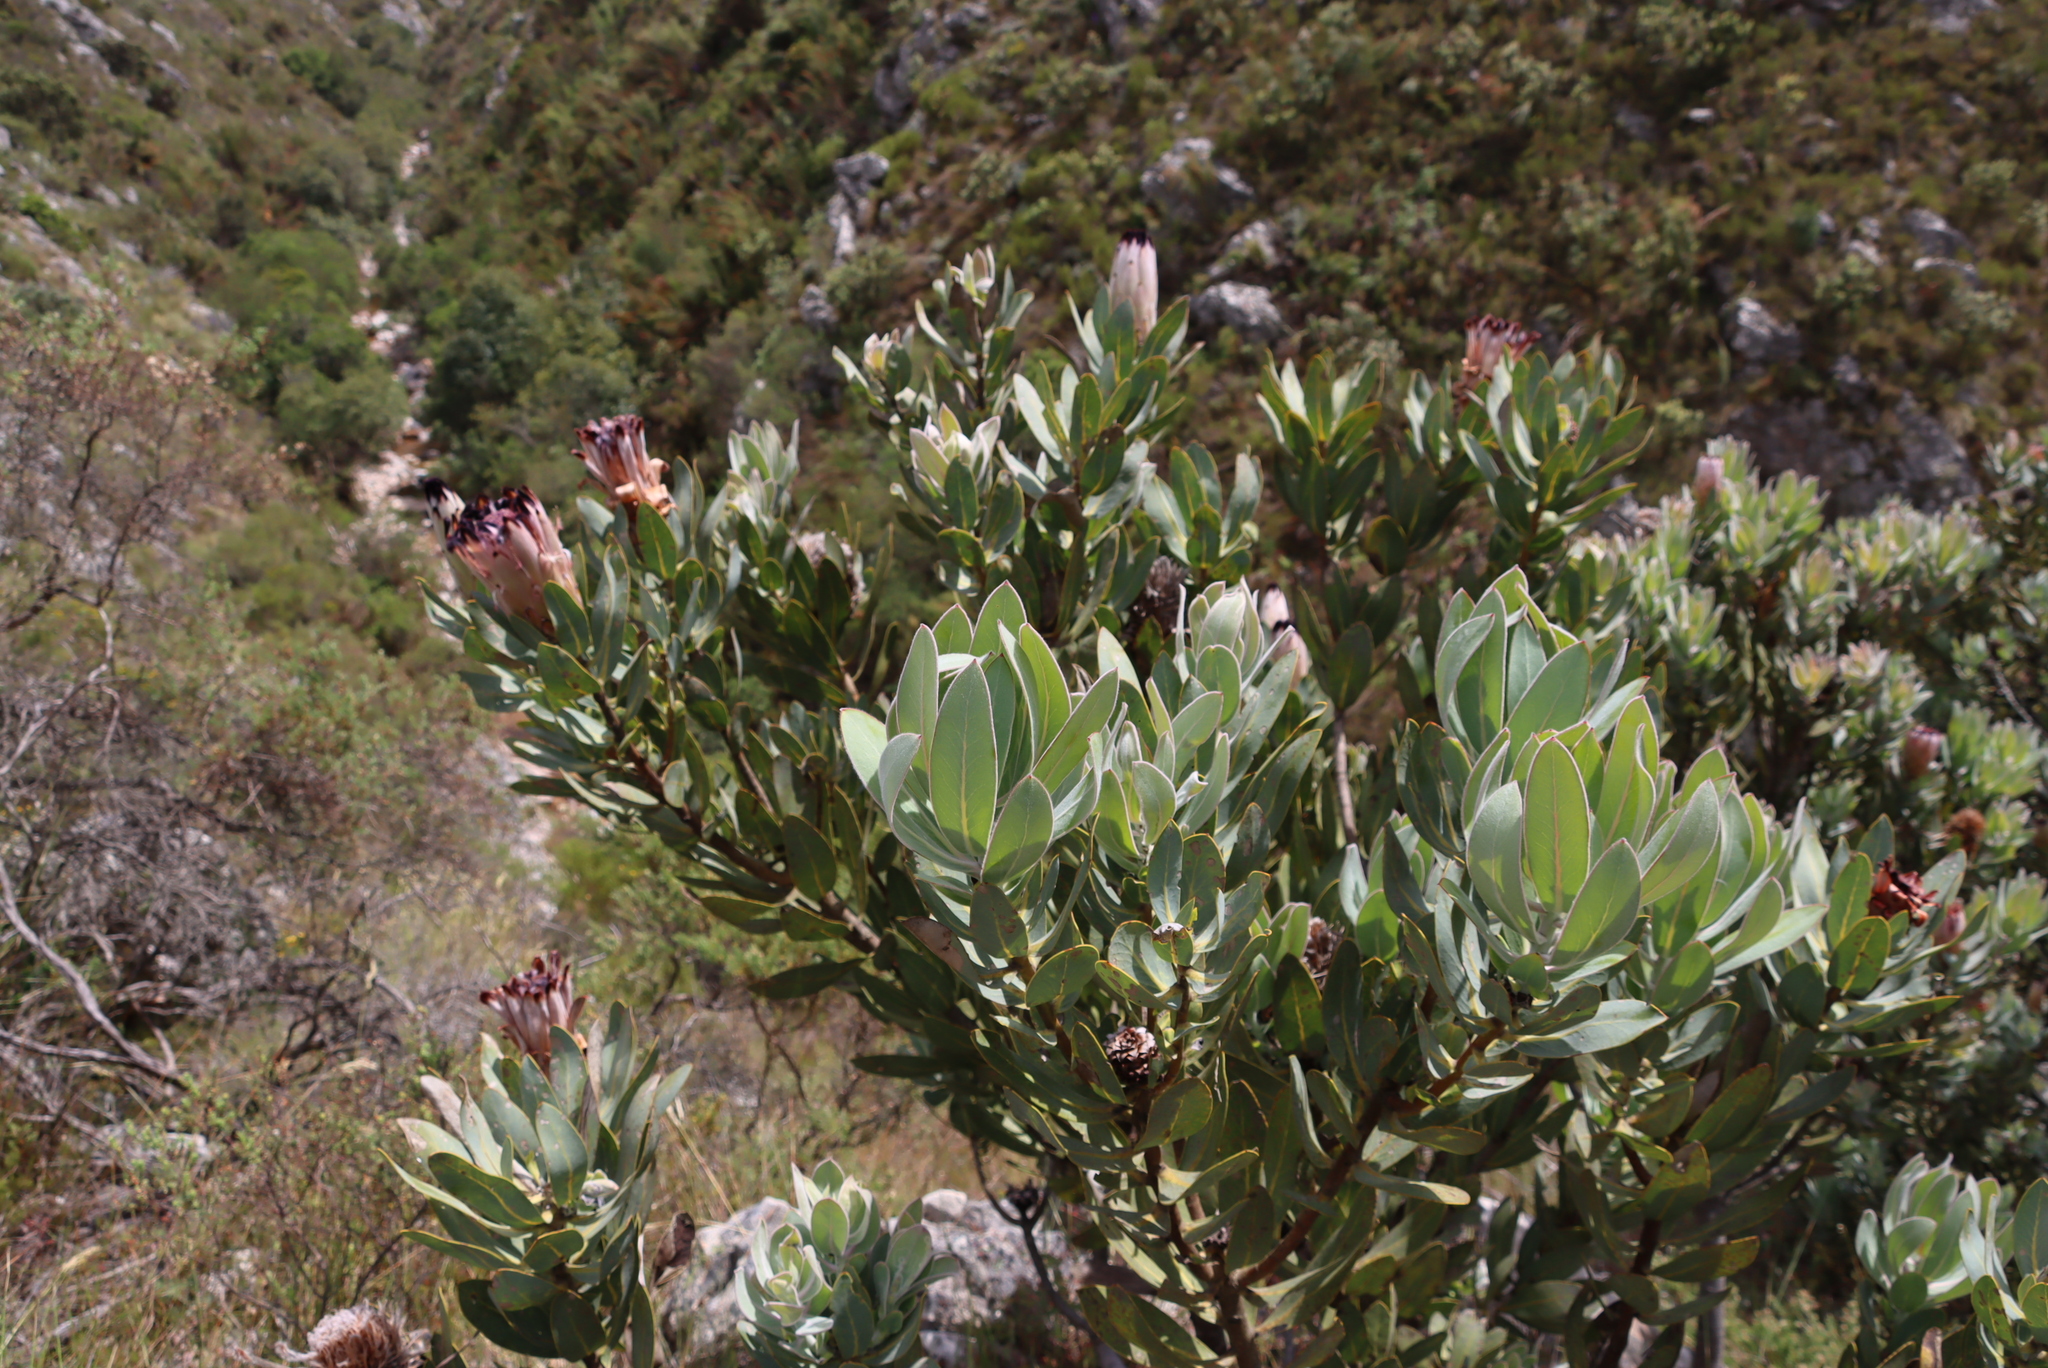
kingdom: Plantae
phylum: Tracheophyta
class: Magnoliopsida
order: Proteales
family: Proteaceae
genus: Protea
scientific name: Protea laurifolia
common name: Grey-leaf sugarbsh
